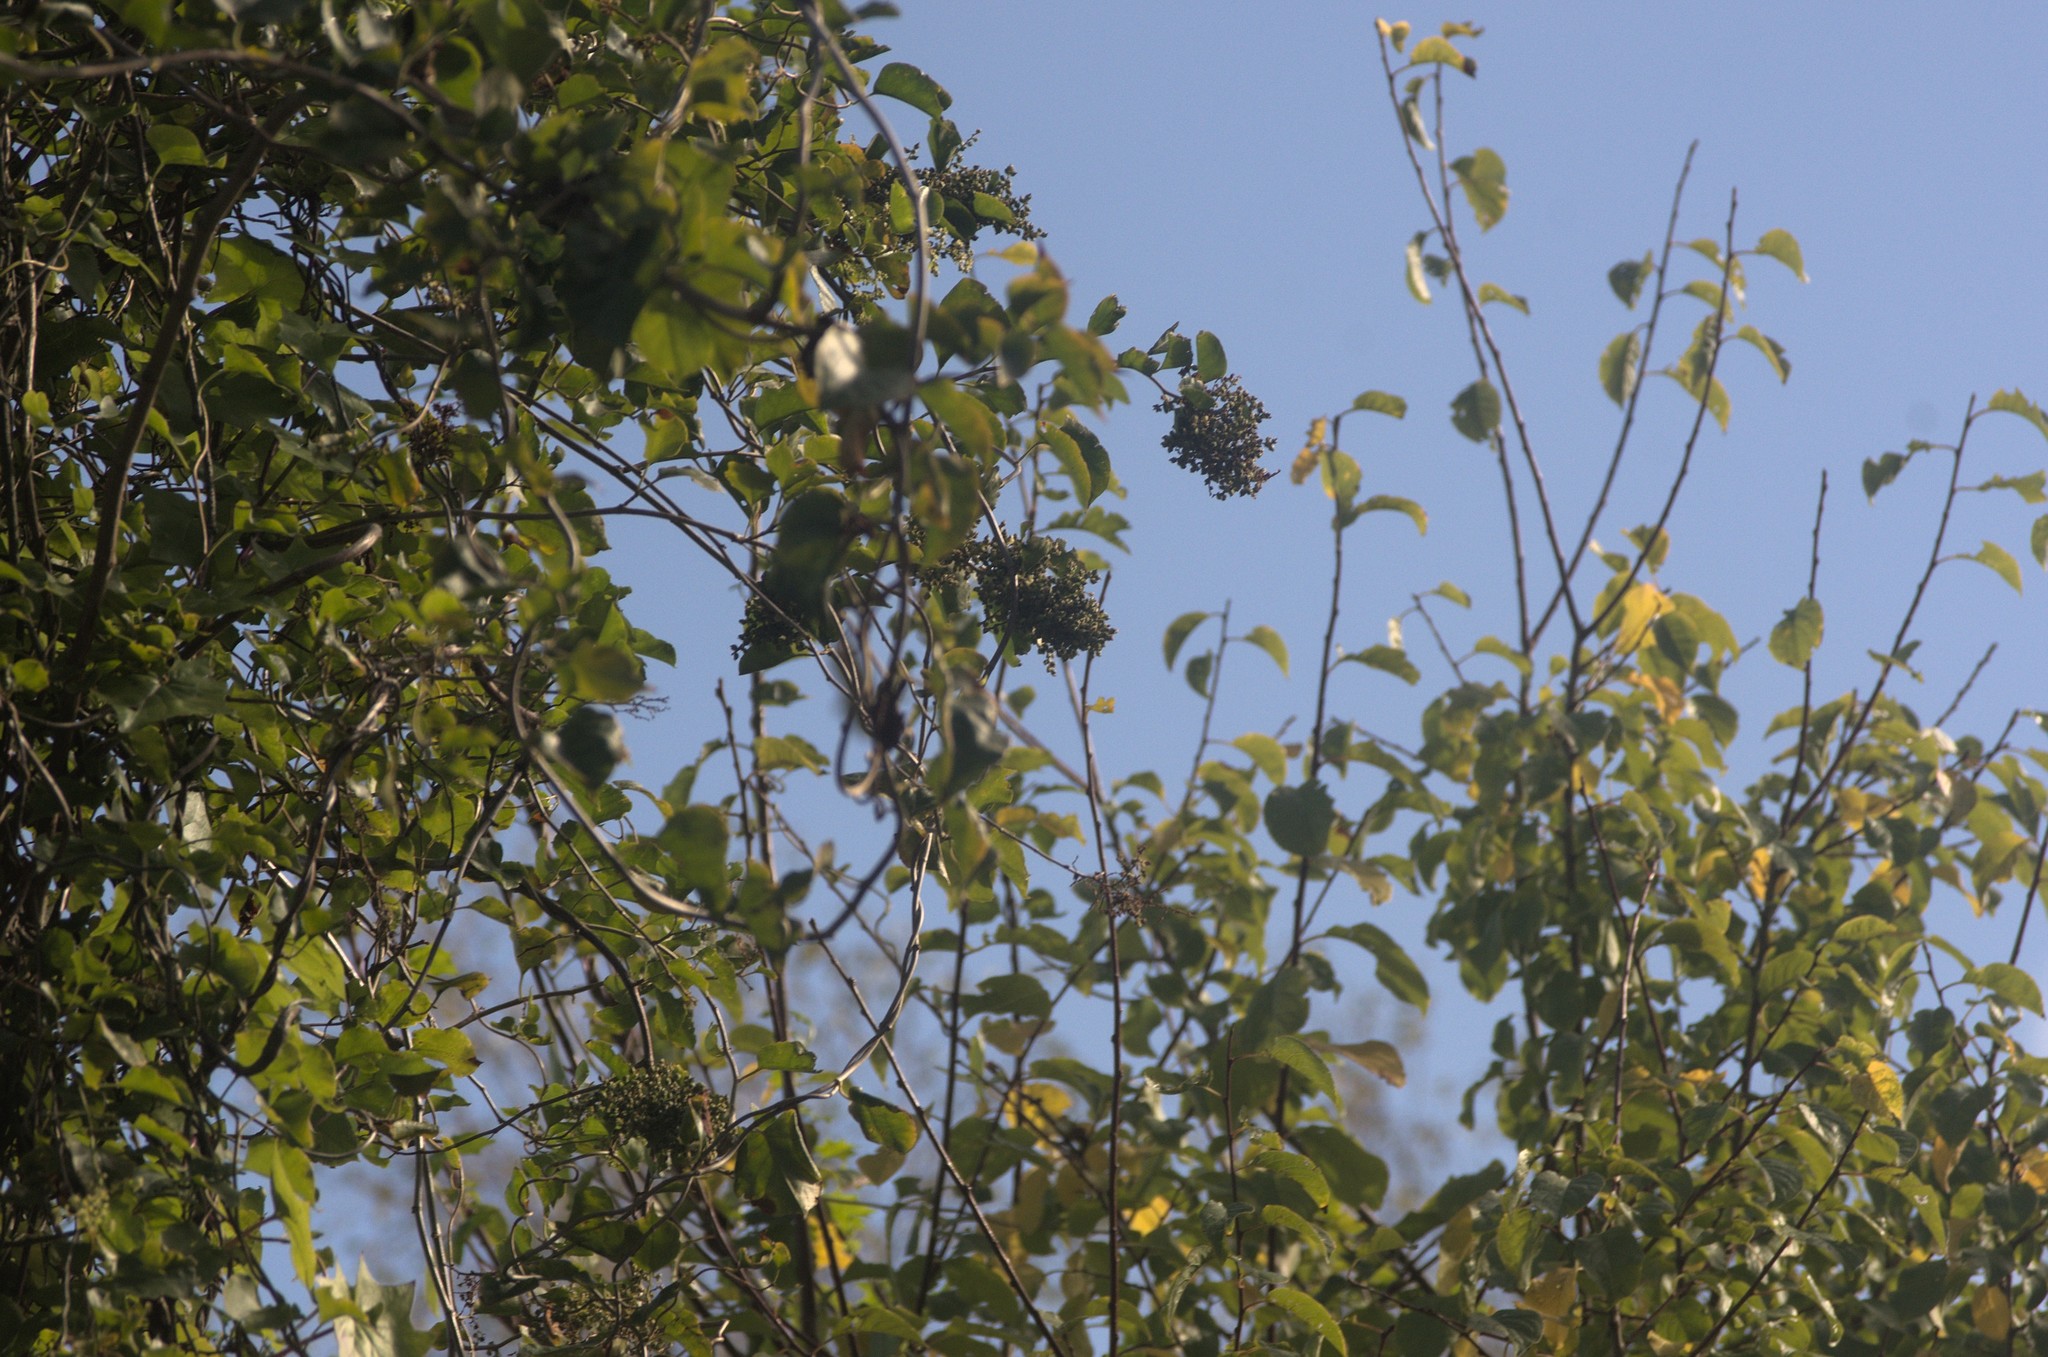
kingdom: Plantae
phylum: Tracheophyta
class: Magnoliopsida
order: Caryophyllales
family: Polygonaceae
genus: Muehlenbeckia
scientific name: Muehlenbeckia australis
